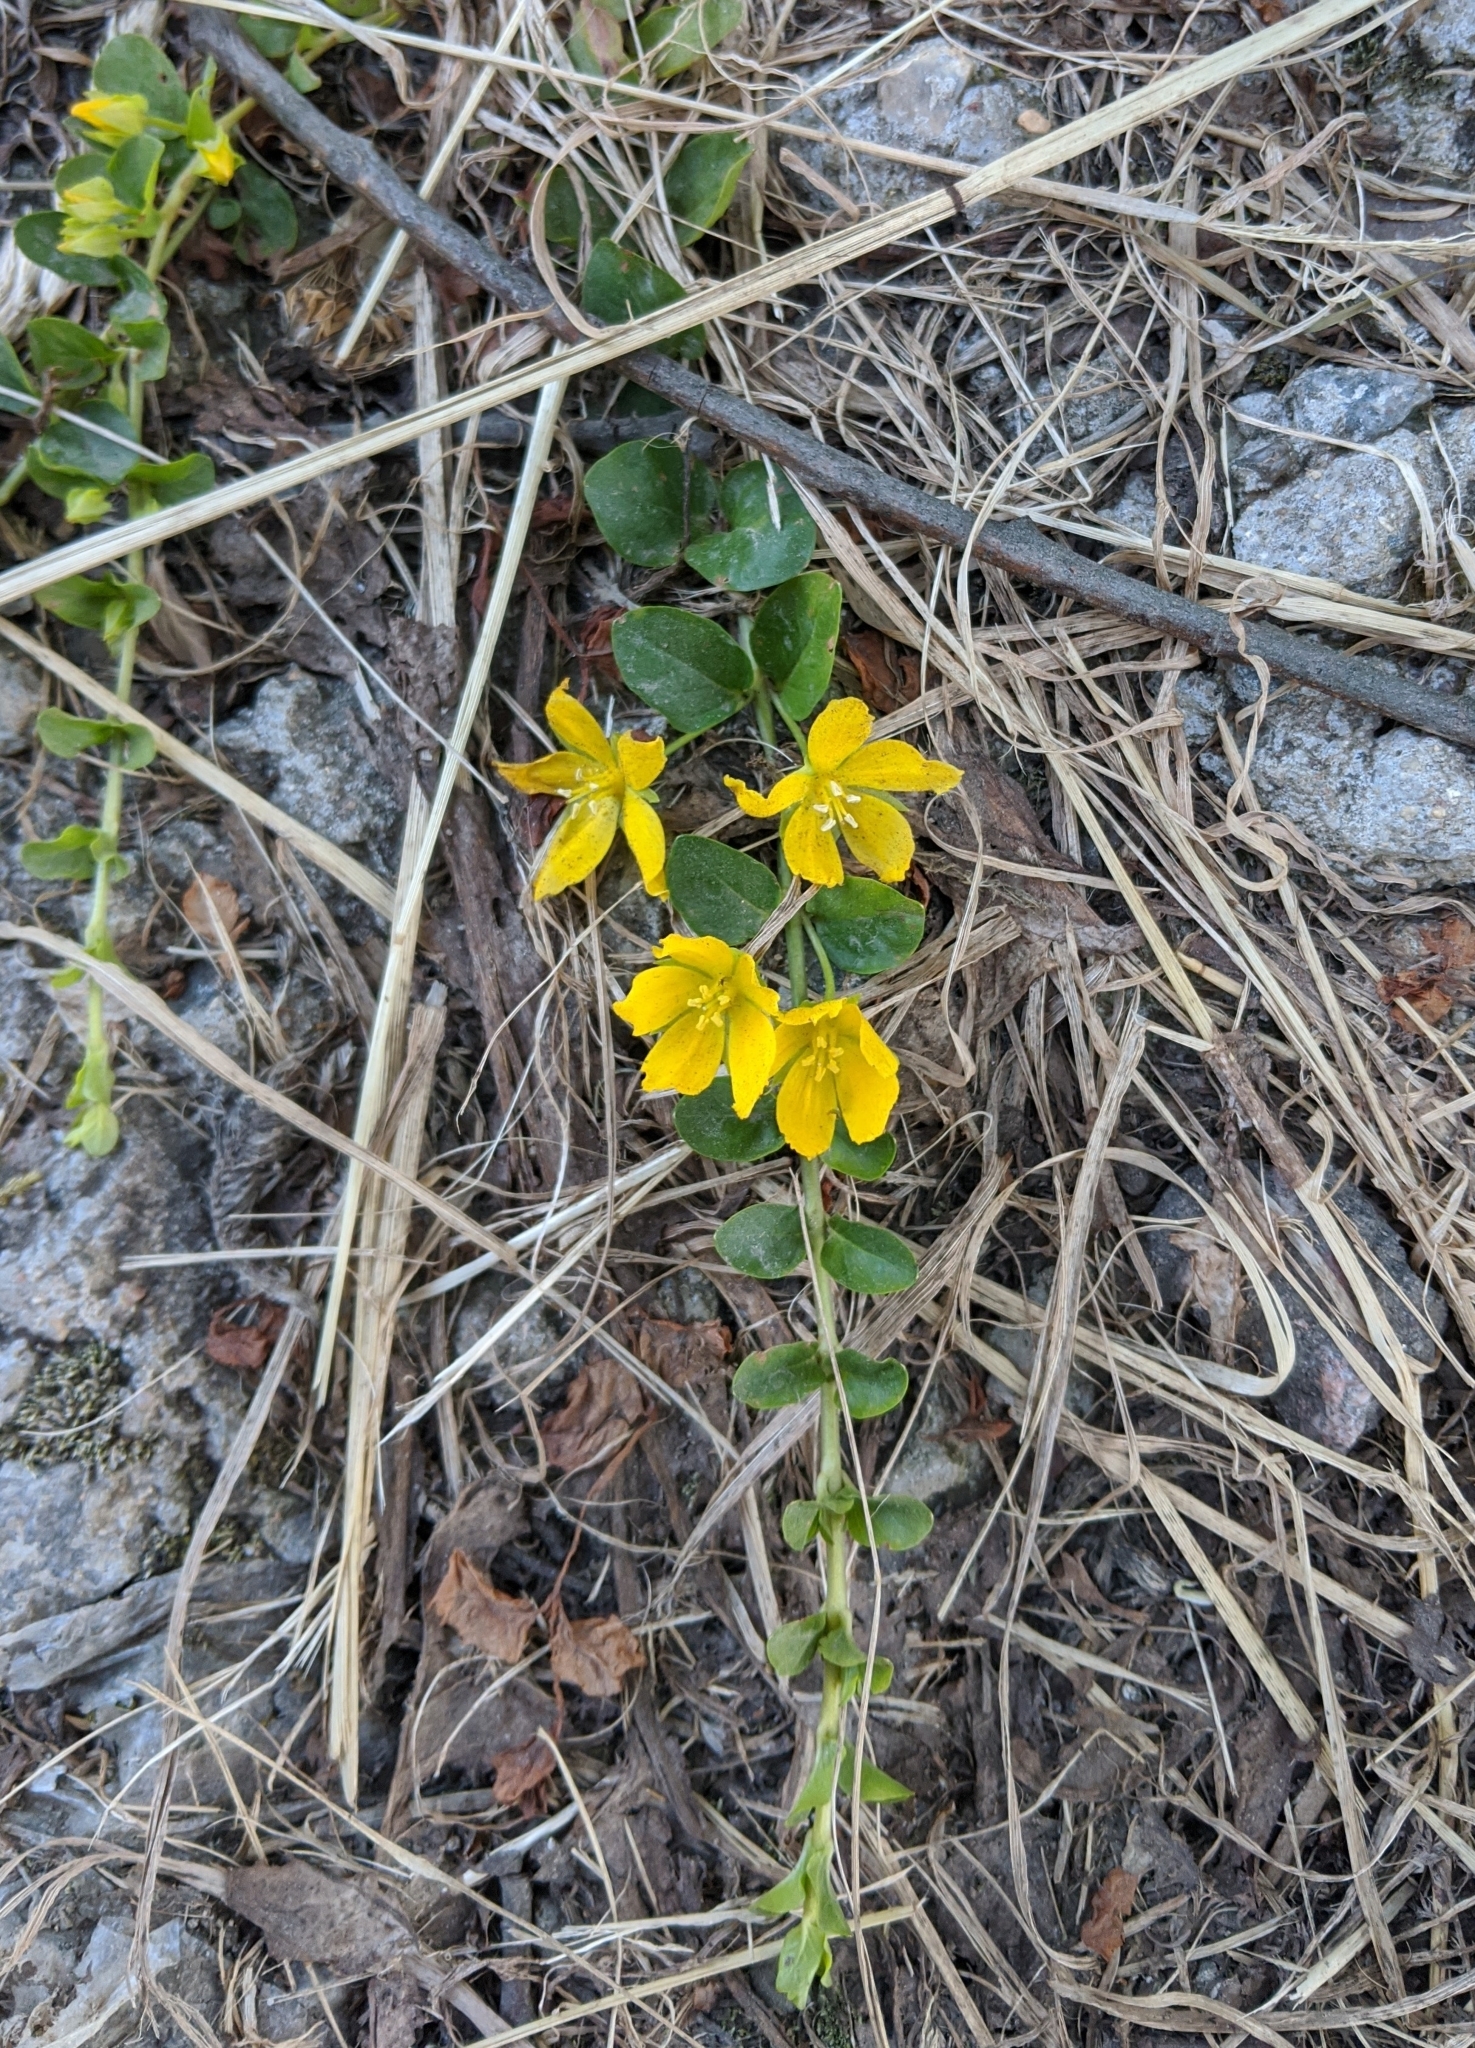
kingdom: Plantae
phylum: Tracheophyta
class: Magnoliopsida
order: Ericales
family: Primulaceae
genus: Lysimachia
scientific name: Lysimachia nummularia
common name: Moneywort
